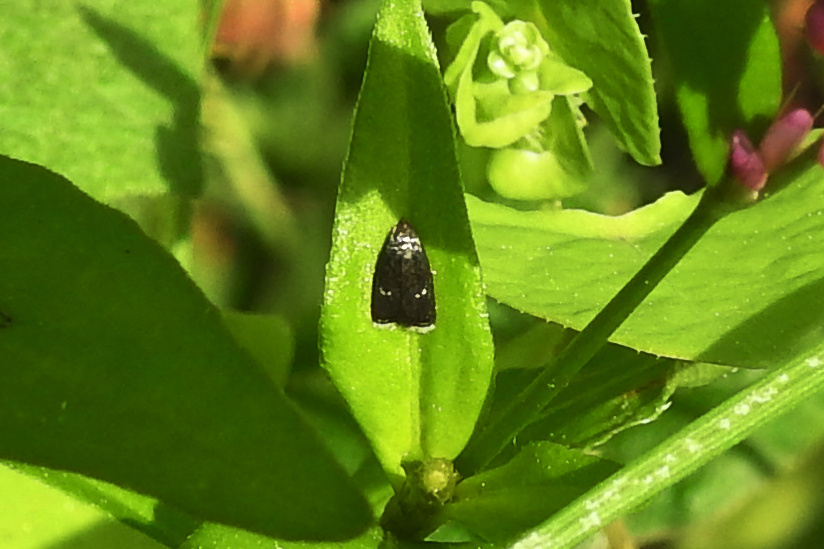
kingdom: Animalia
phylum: Arthropoda
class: Insecta
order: Lepidoptera
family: Depressariidae
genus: Menesta
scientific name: Menesta tortriciformella
